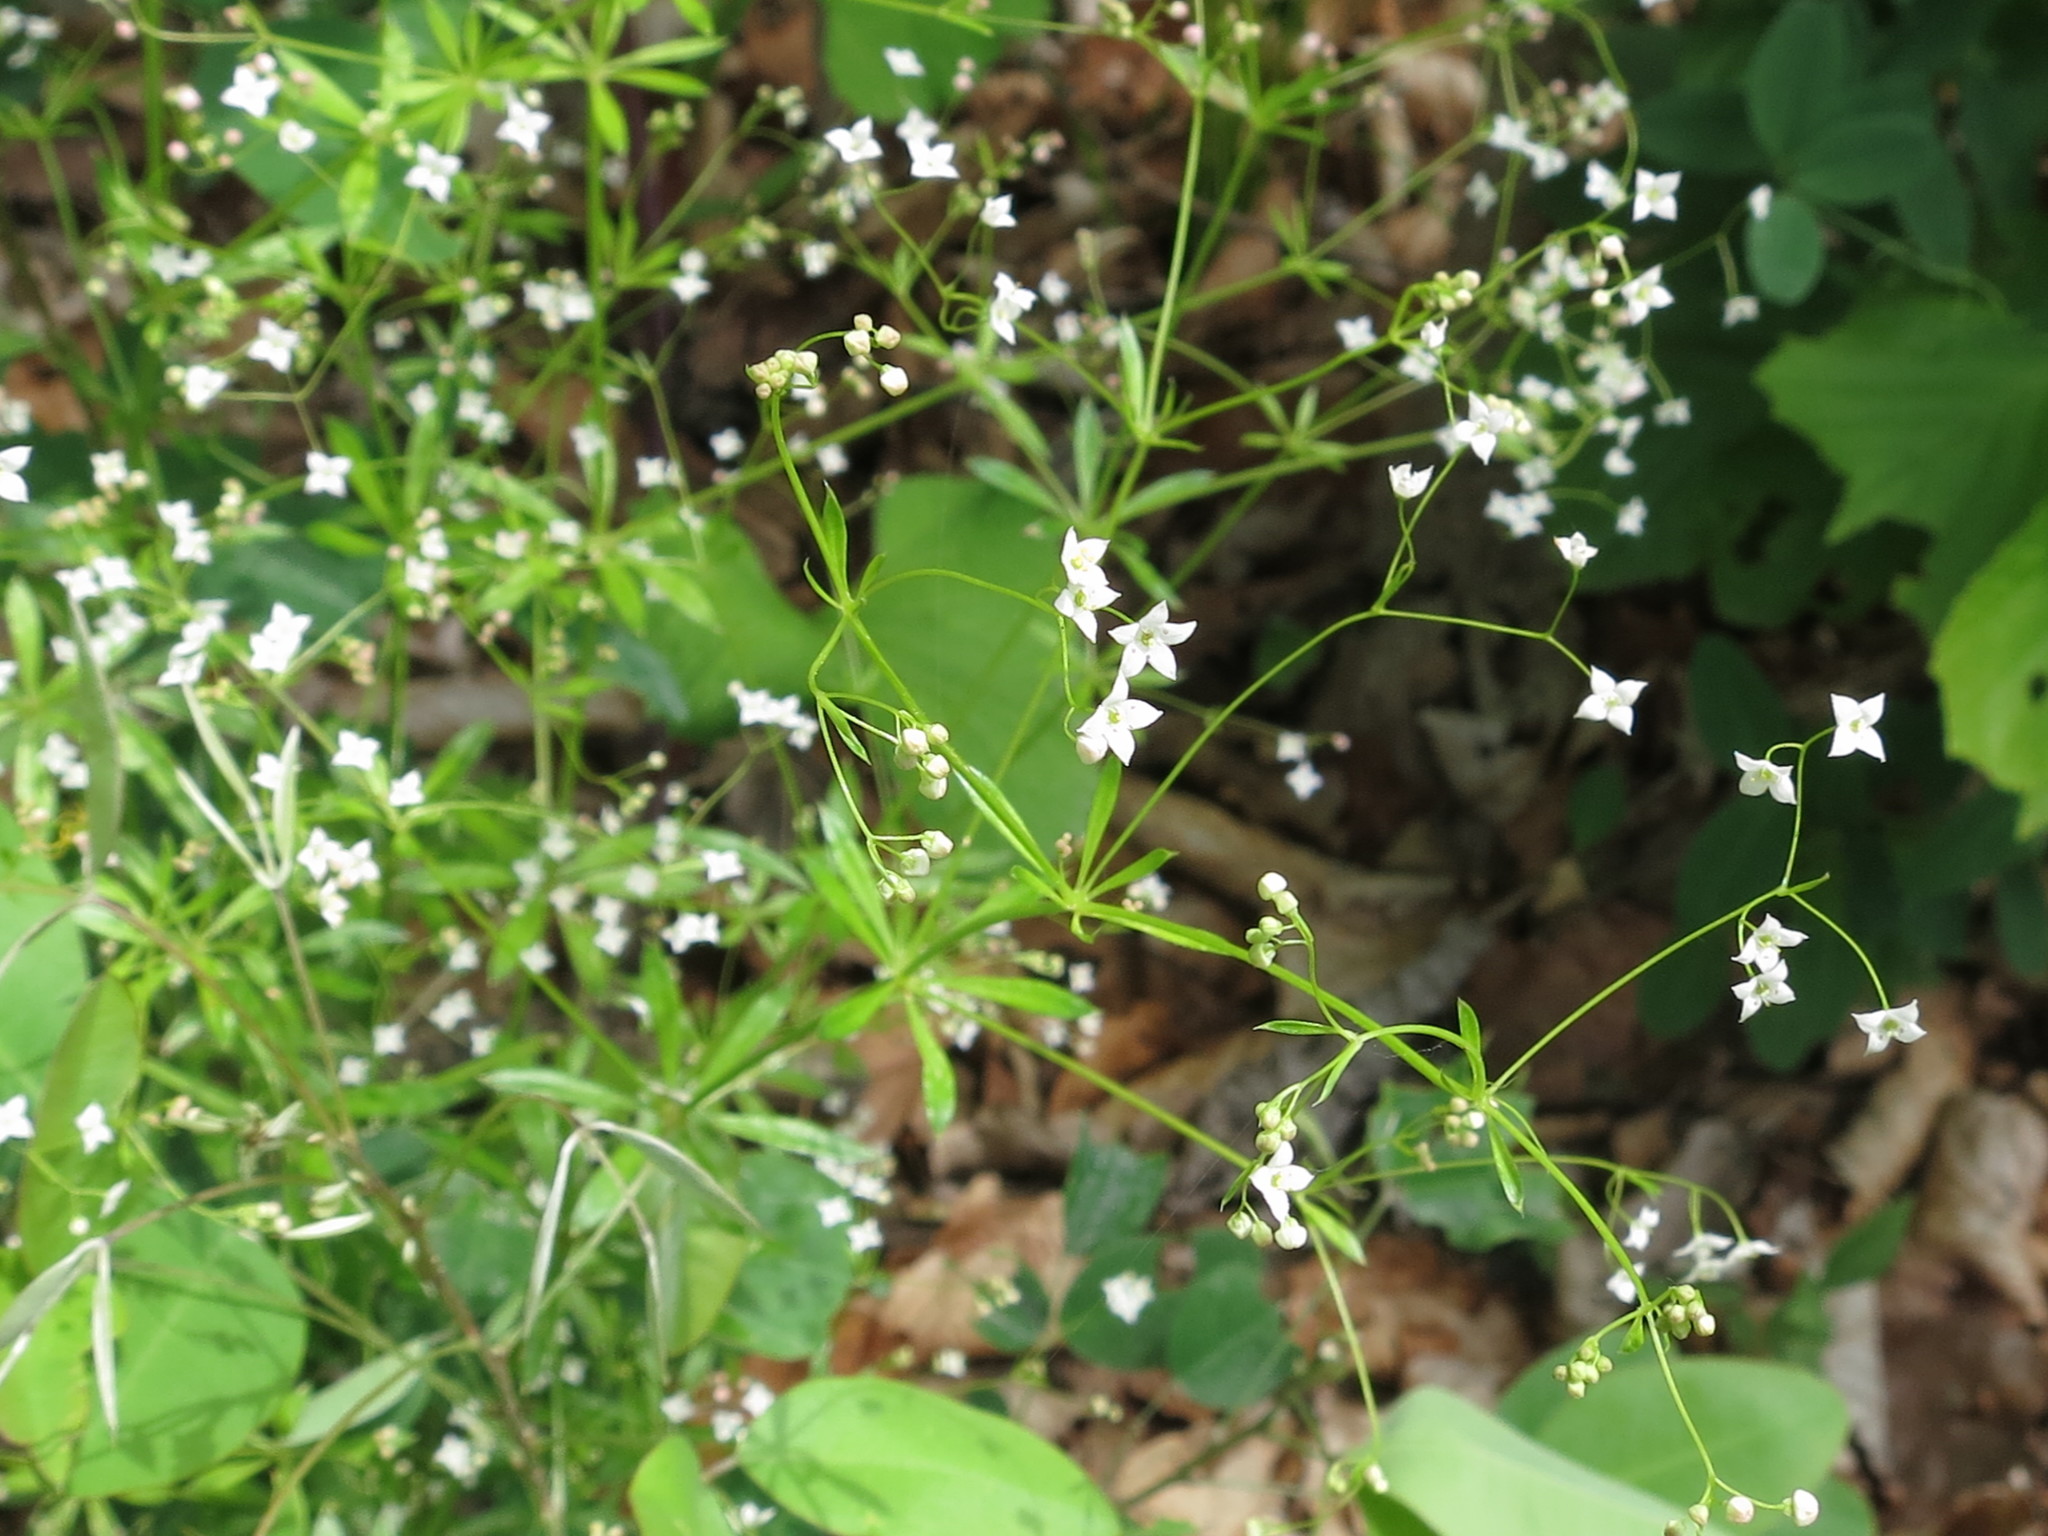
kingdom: Plantae
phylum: Tracheophyta
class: Magnoliopsida
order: Gentianales
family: Rubiaceae
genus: Galium
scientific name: Galium dahuricum
